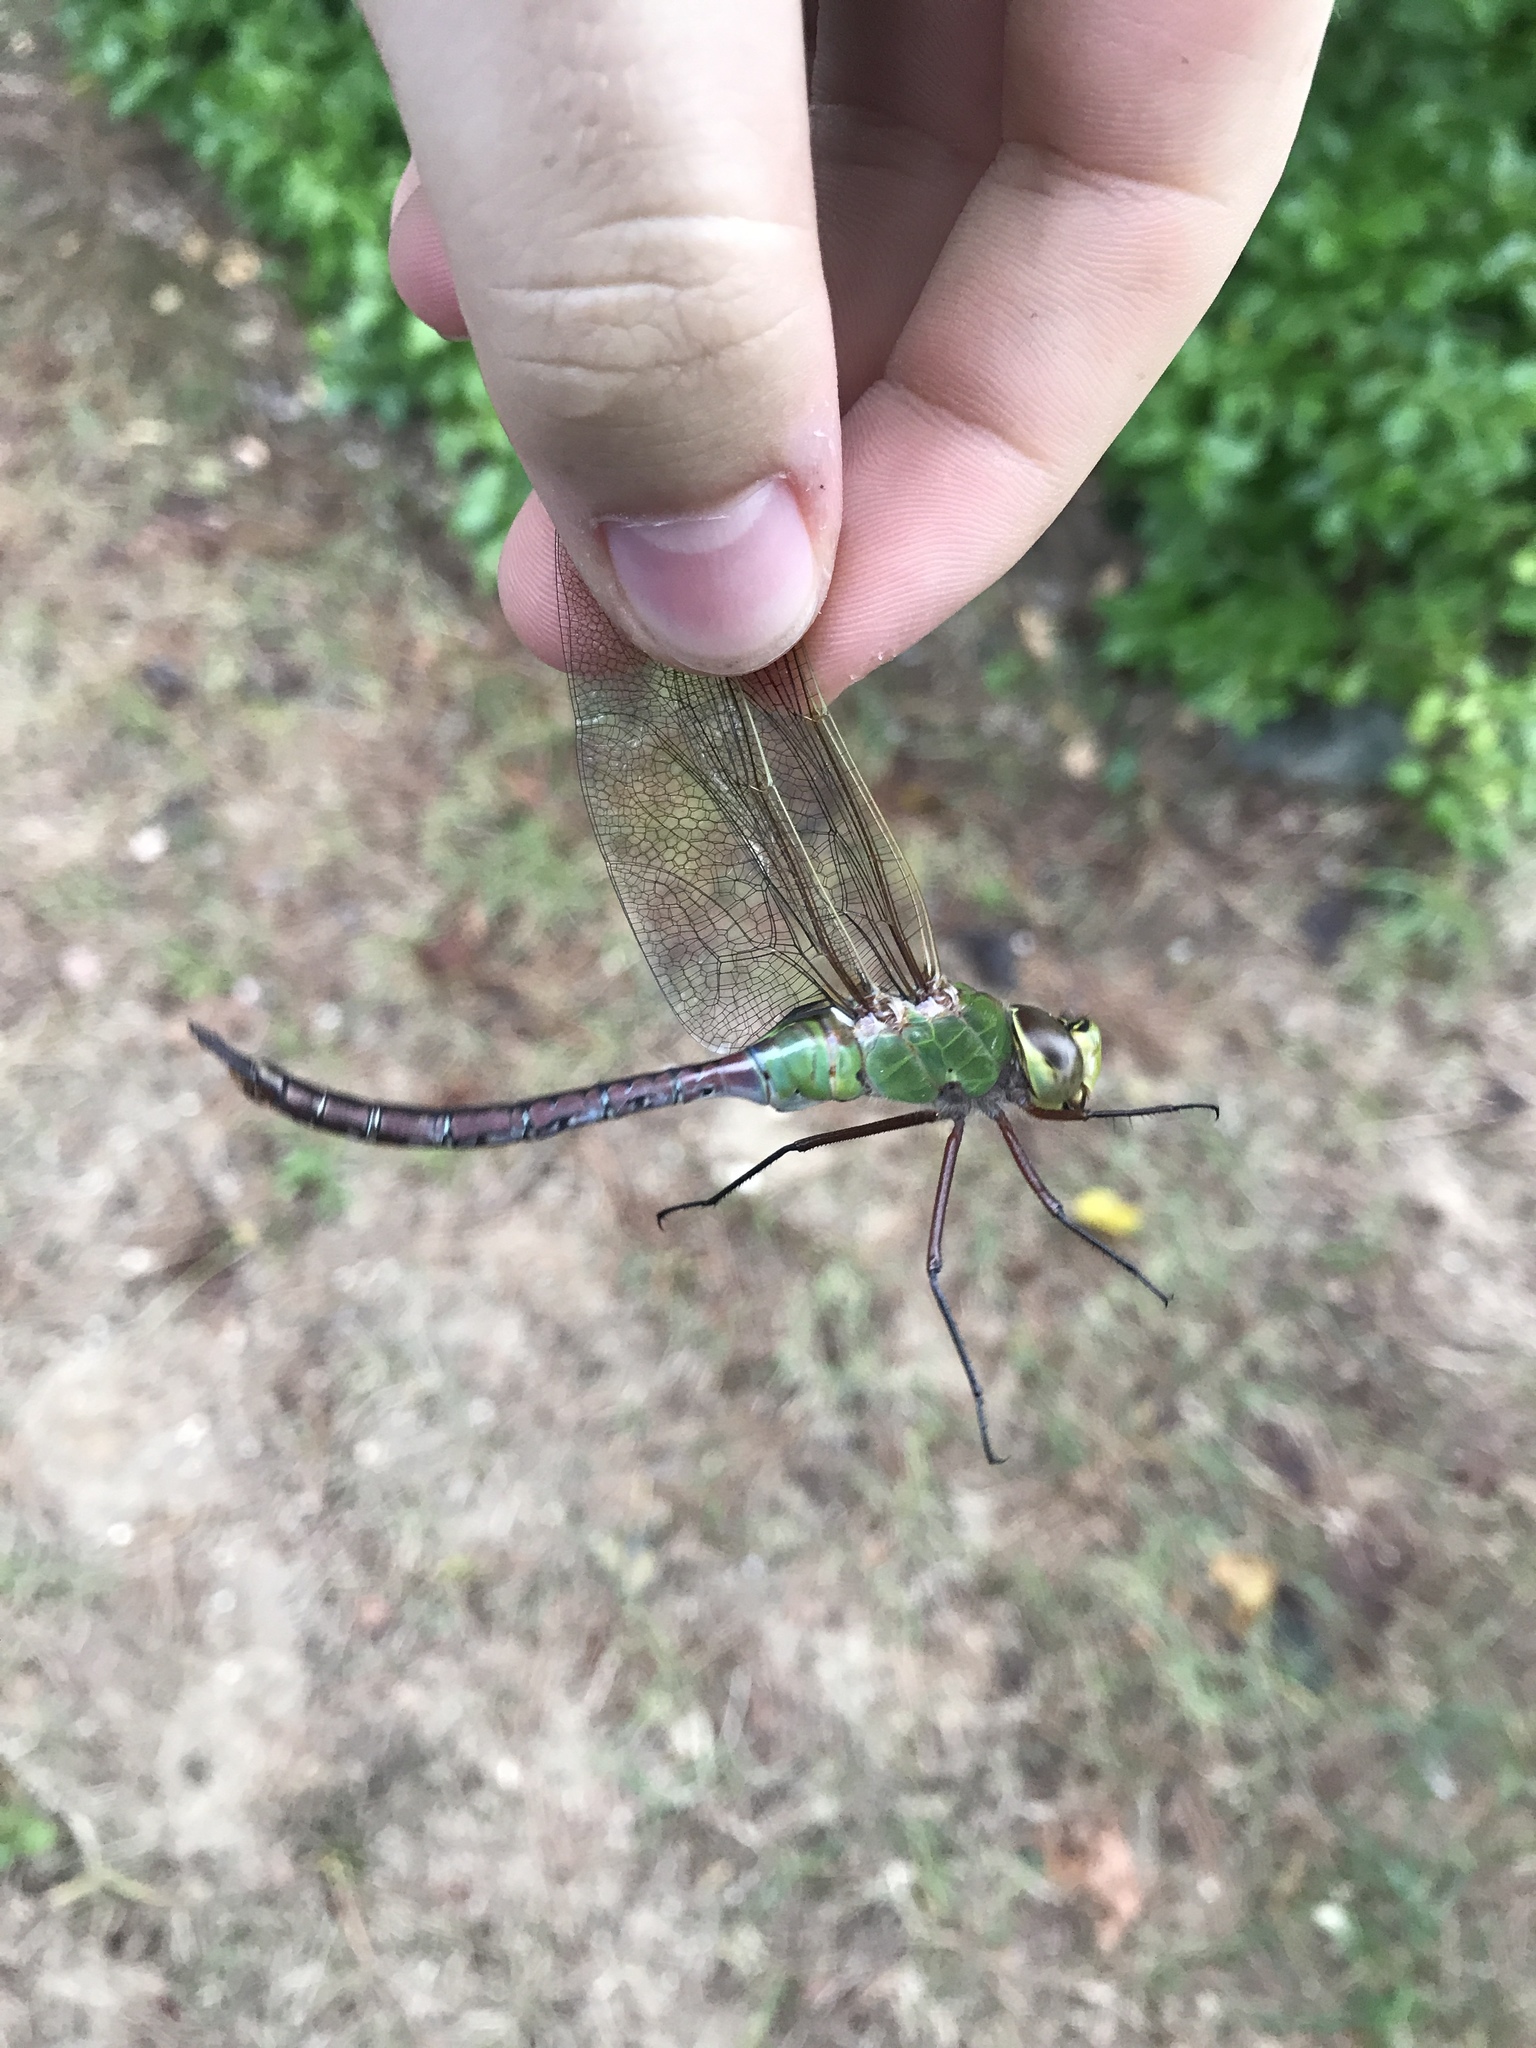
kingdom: Animalia
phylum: Arthropoda
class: Insecta
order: Odonata
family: Aeshnidae
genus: Anax
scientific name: Anax junius
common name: Common green darner
